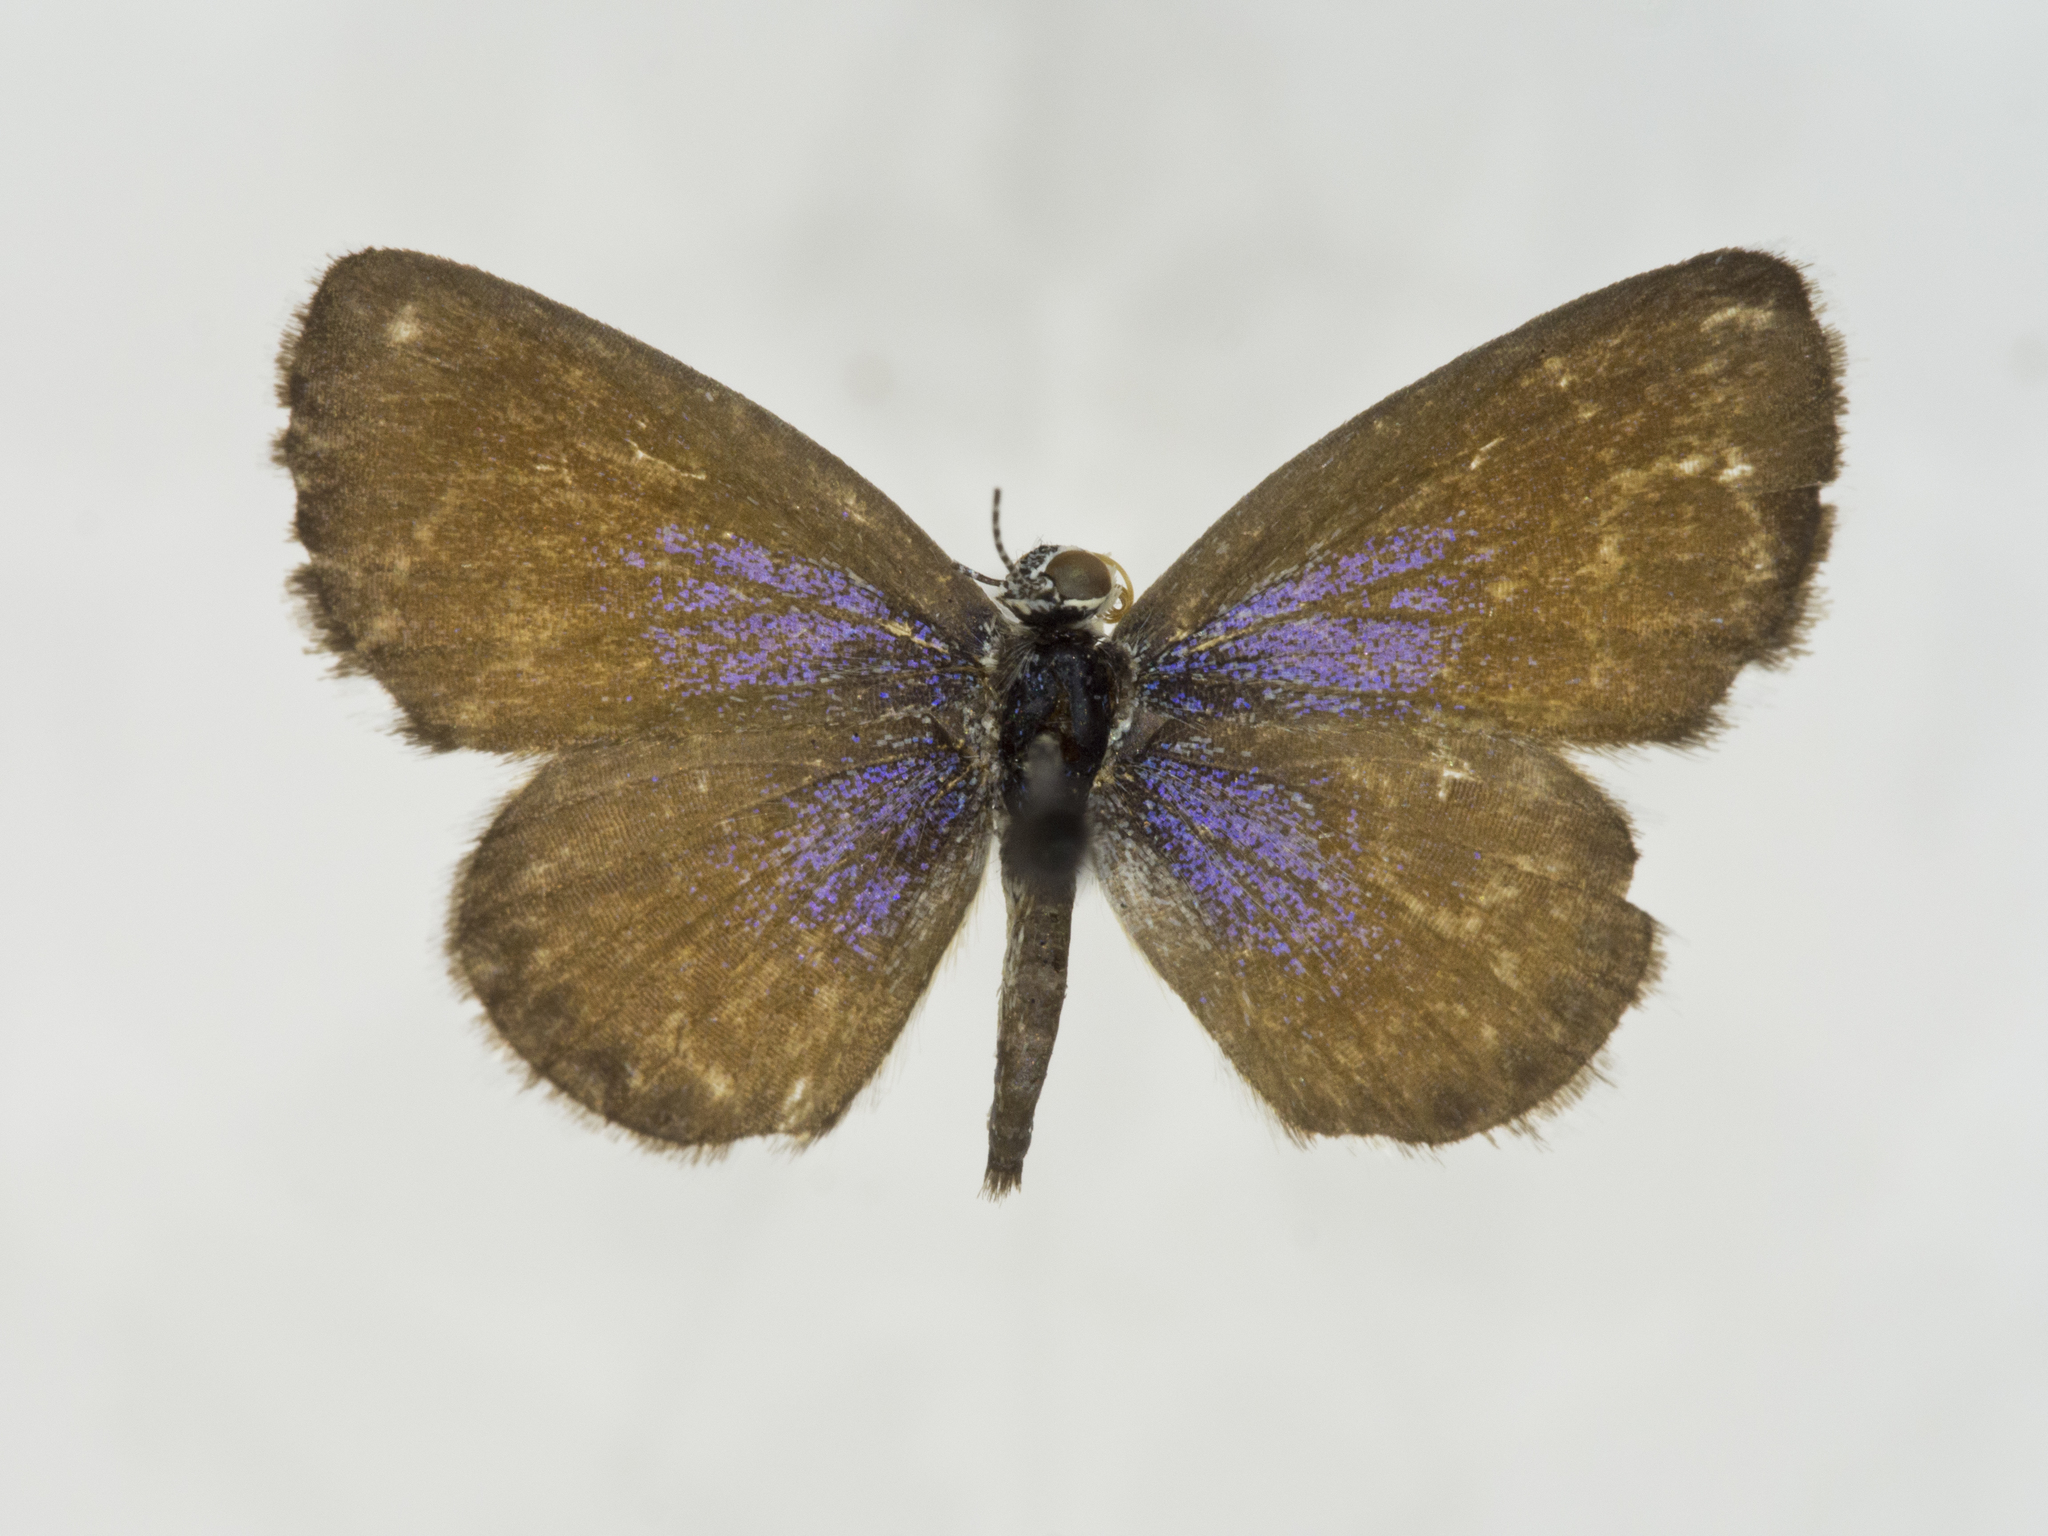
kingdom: Animalia
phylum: Arthropoda
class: Insecta
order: Lepidoptera
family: Lycaenidae
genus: Brephidium
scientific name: Brephidium exilis
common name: Pygmy blue
